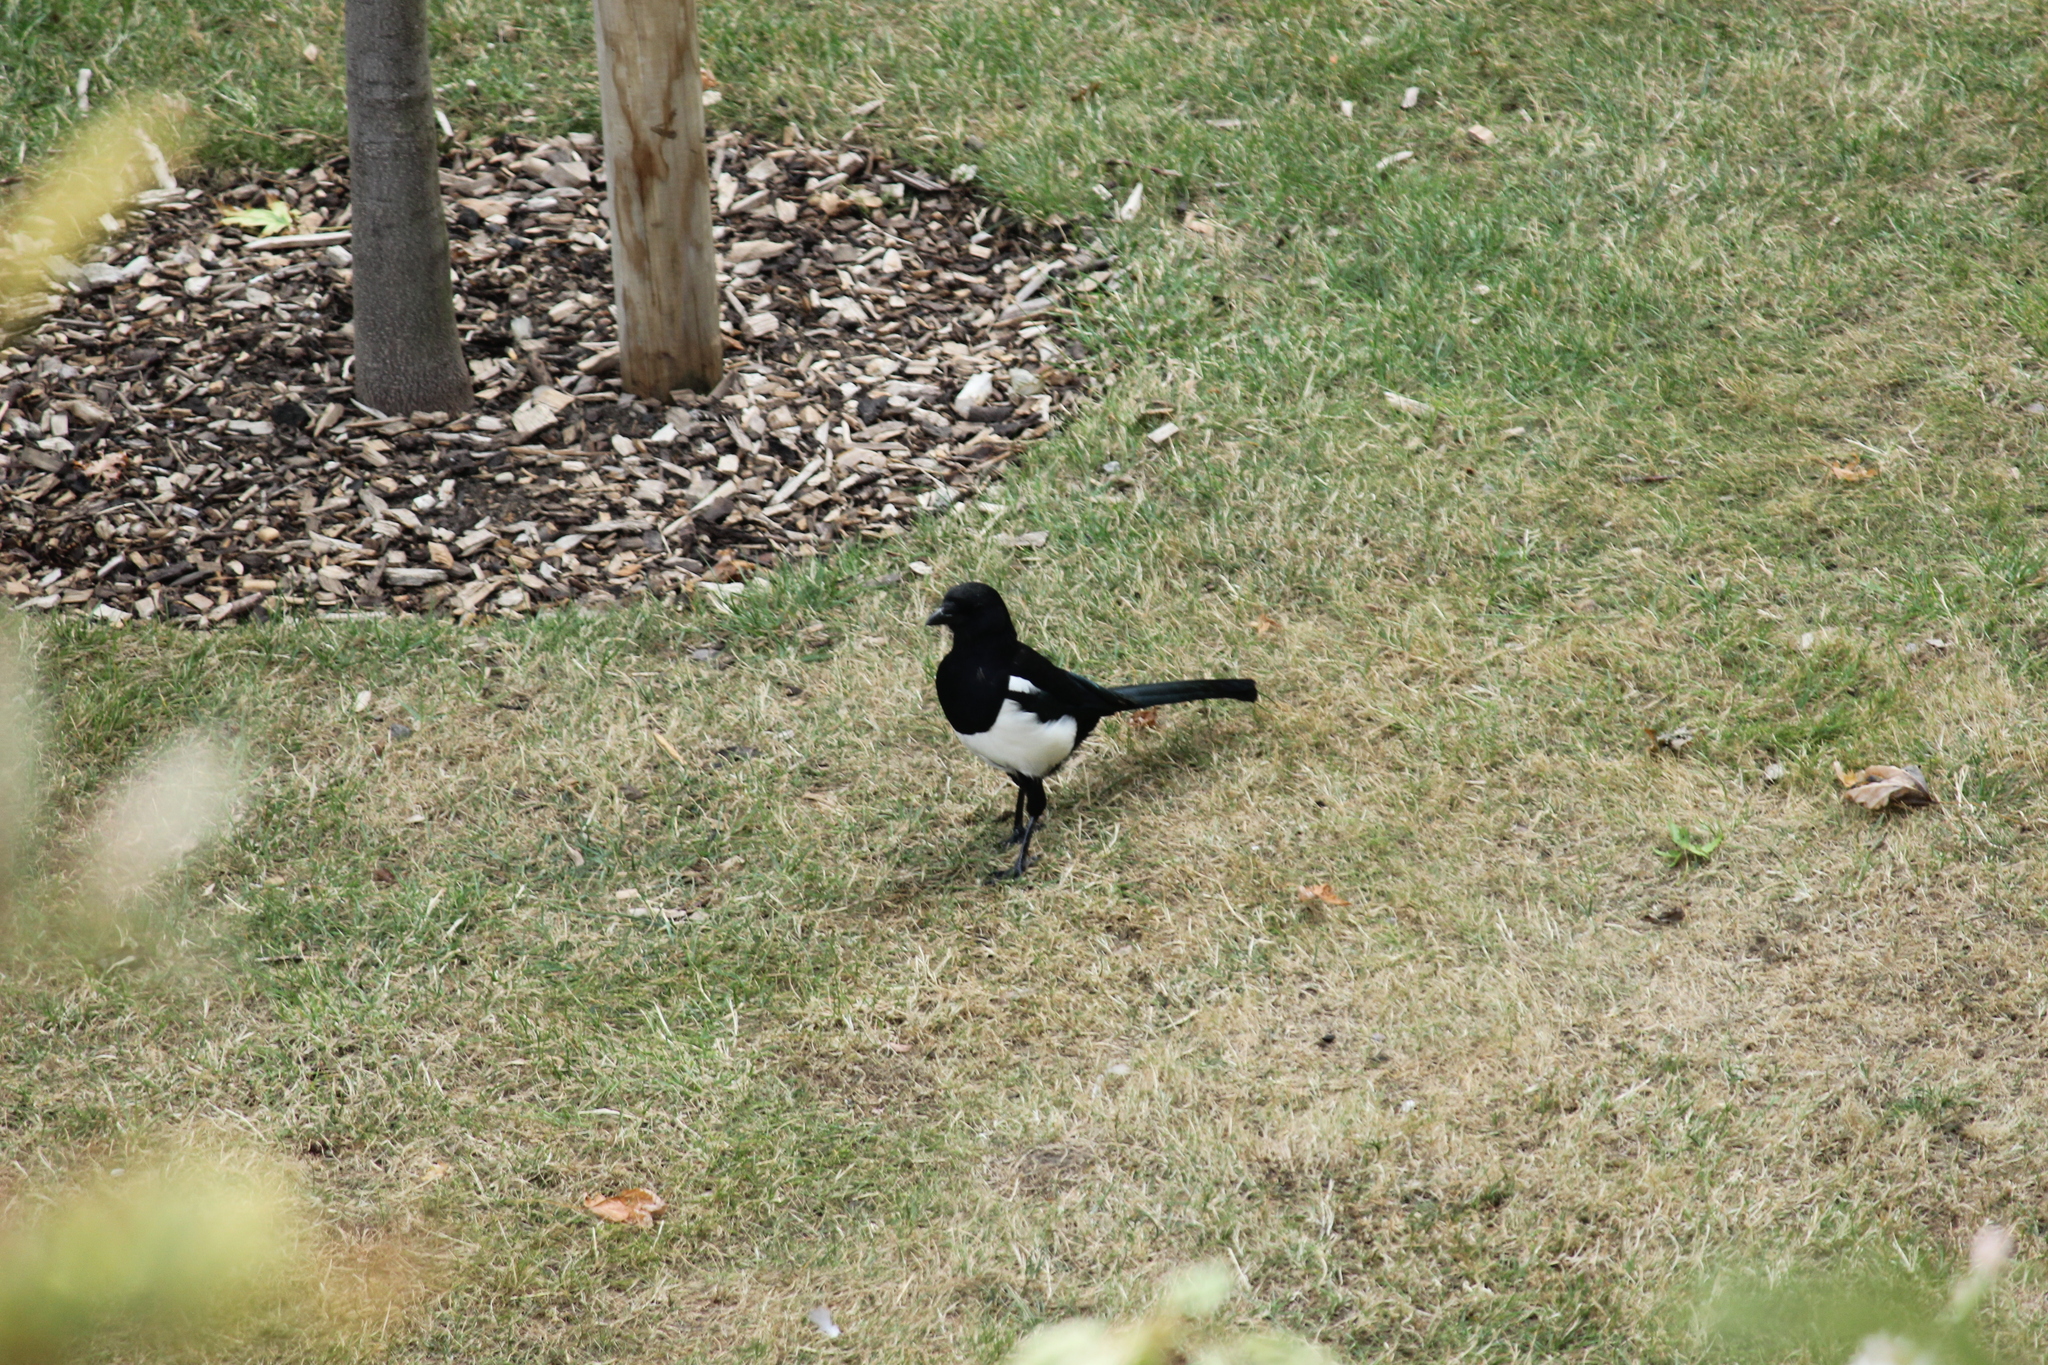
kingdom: Animalia
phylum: Chordata
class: Aves
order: Passeriformes
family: Corvidae
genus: Pica
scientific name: Pica pica
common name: Eurasian magpie
